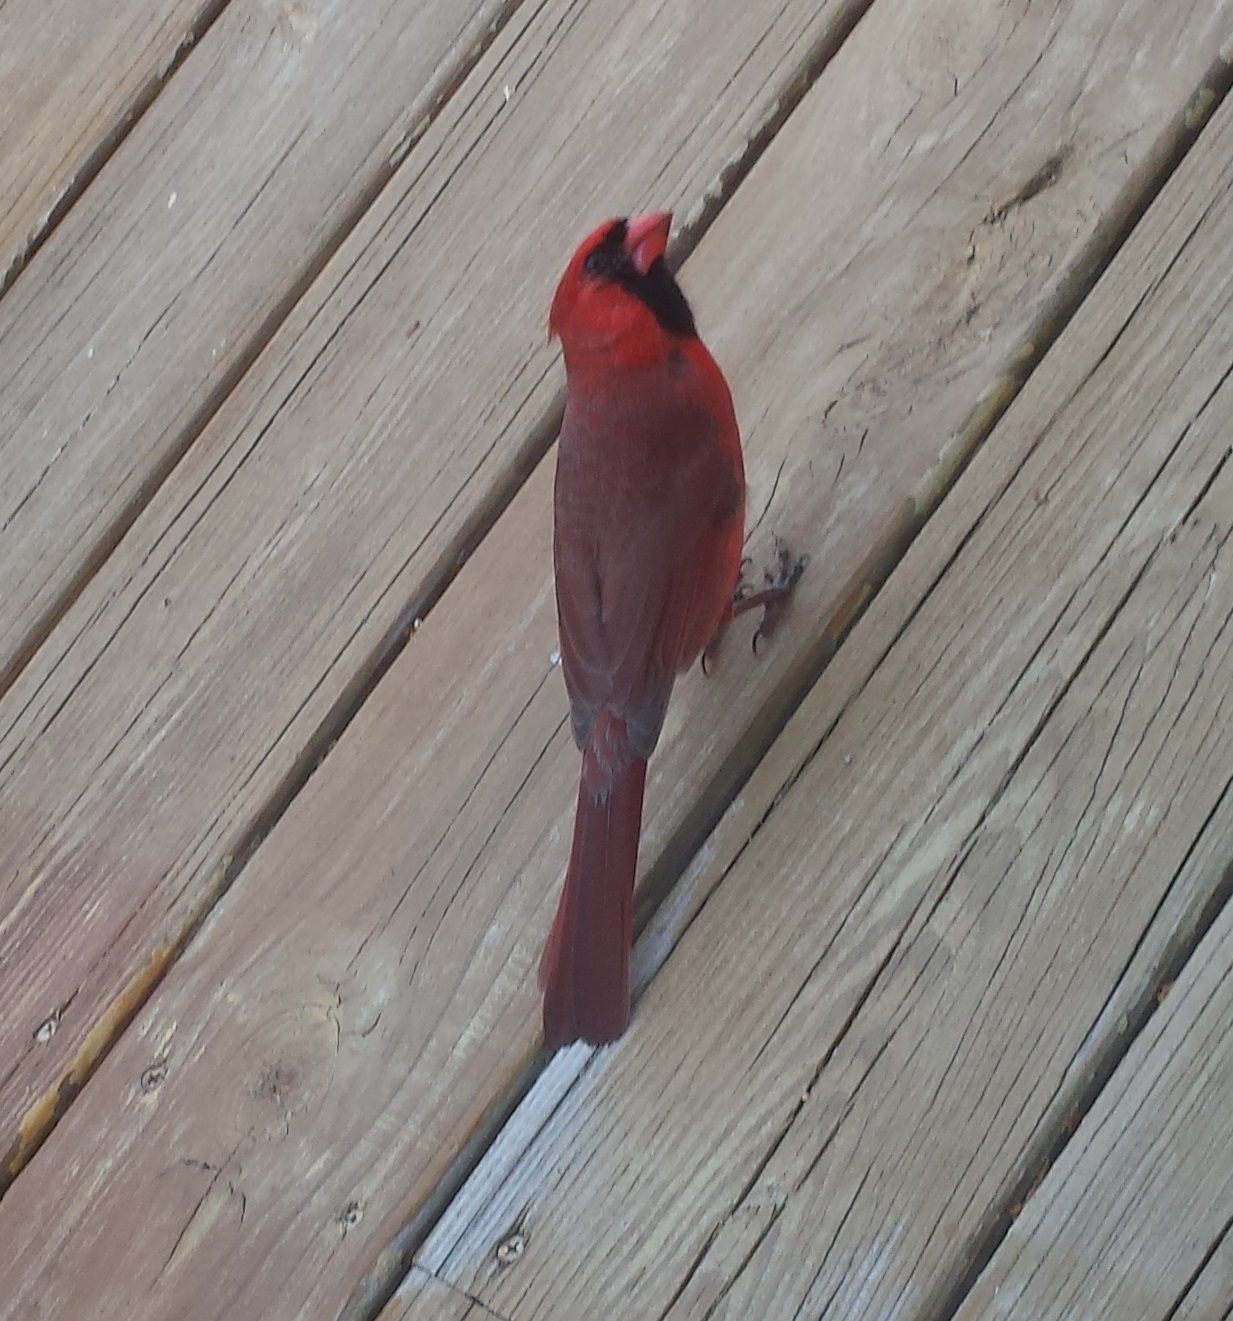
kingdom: Animalia
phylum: Chordata
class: Aves
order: Passeriformes
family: Cardinalidae
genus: Cardinalis
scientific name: Cardinalis cardinalis
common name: Northern cardinal
